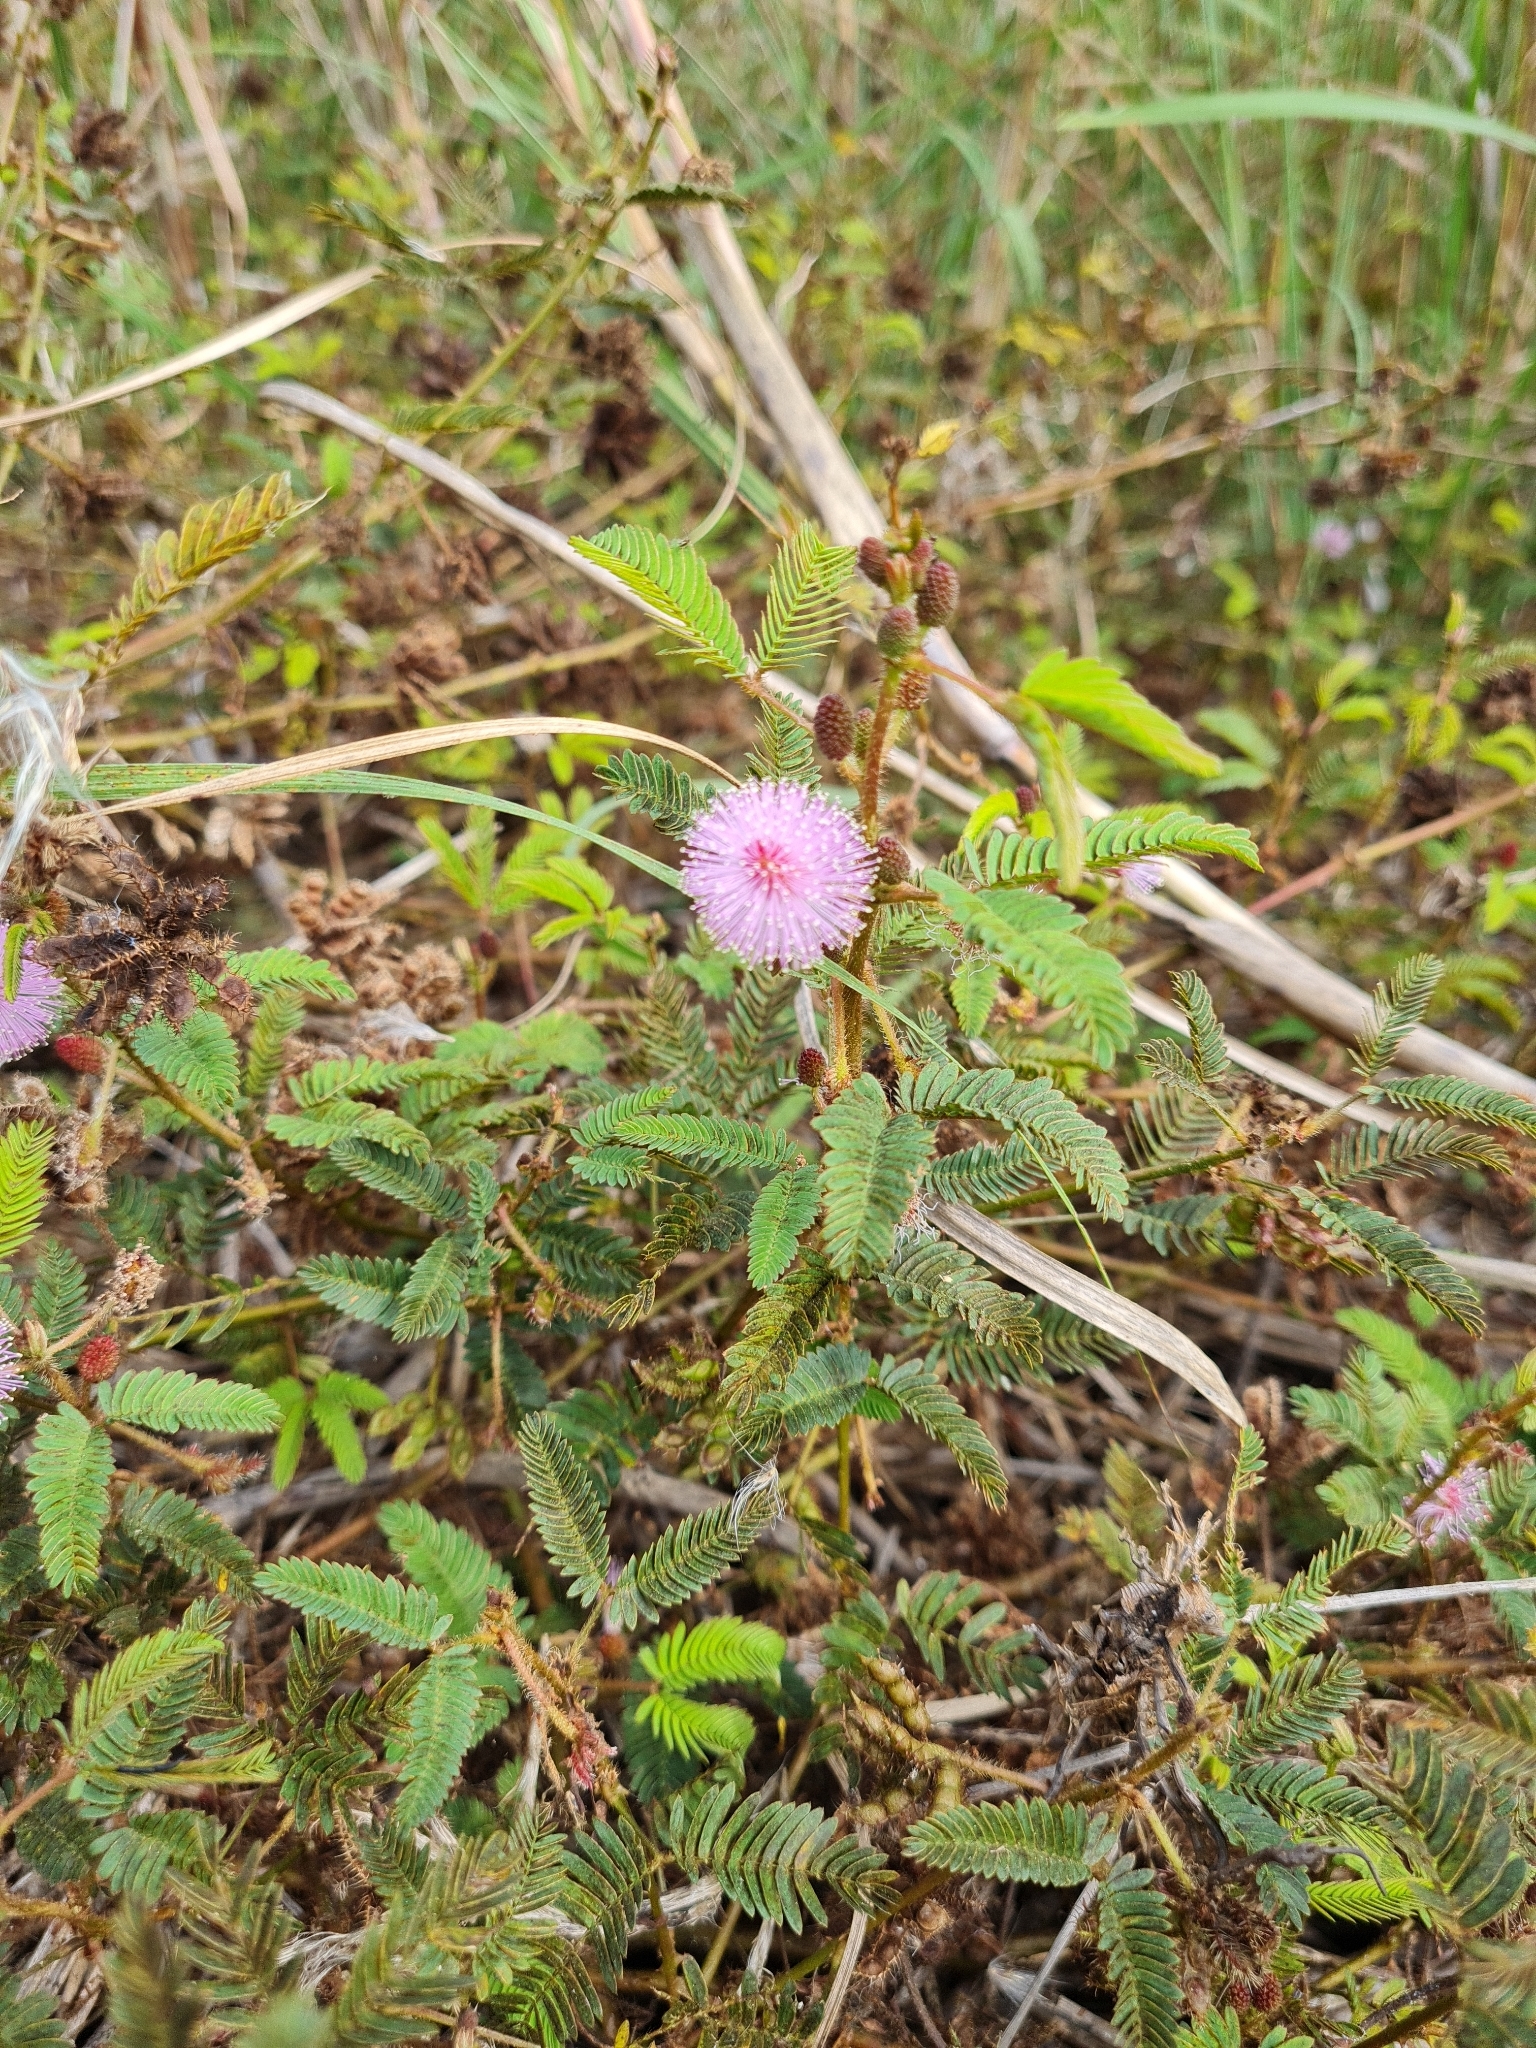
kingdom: Plantae
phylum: Tracheophyta
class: Magnoliopsida
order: Fabales
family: Fabaceae
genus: Mimosa
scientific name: Mimosa pudica
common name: Sensitive plant
